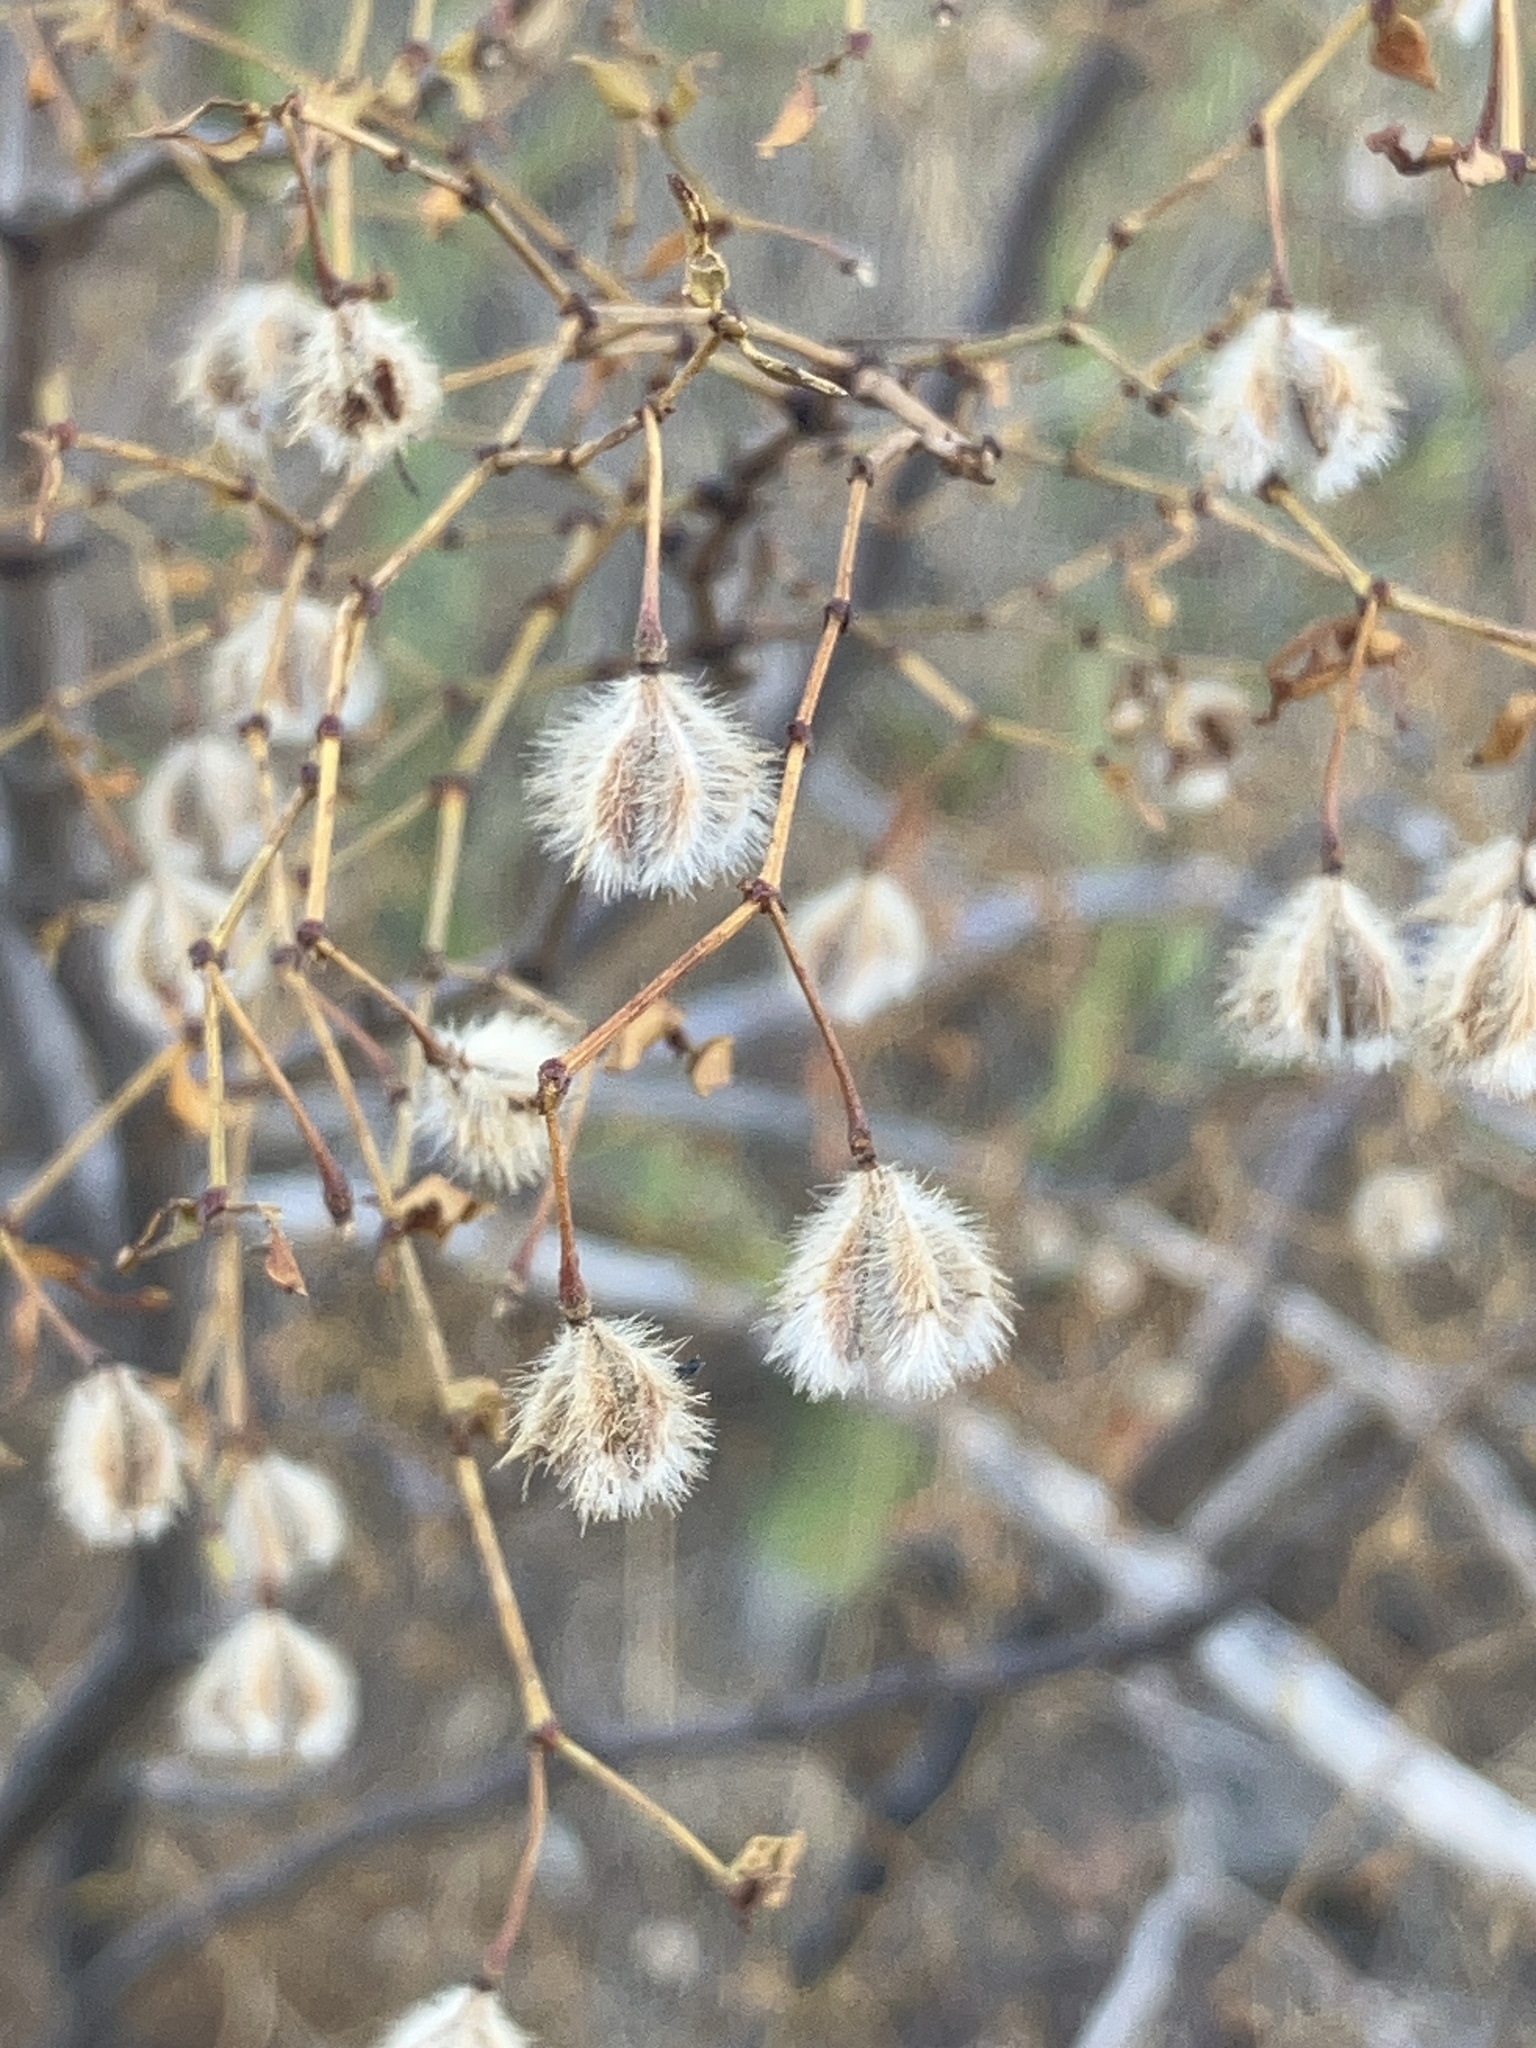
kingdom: Plantae
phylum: Tracheophyta
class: Magnoliopsida
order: Zygophyllales
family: Zygophyllaceae
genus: Larrea
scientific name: Larrea tridentata
